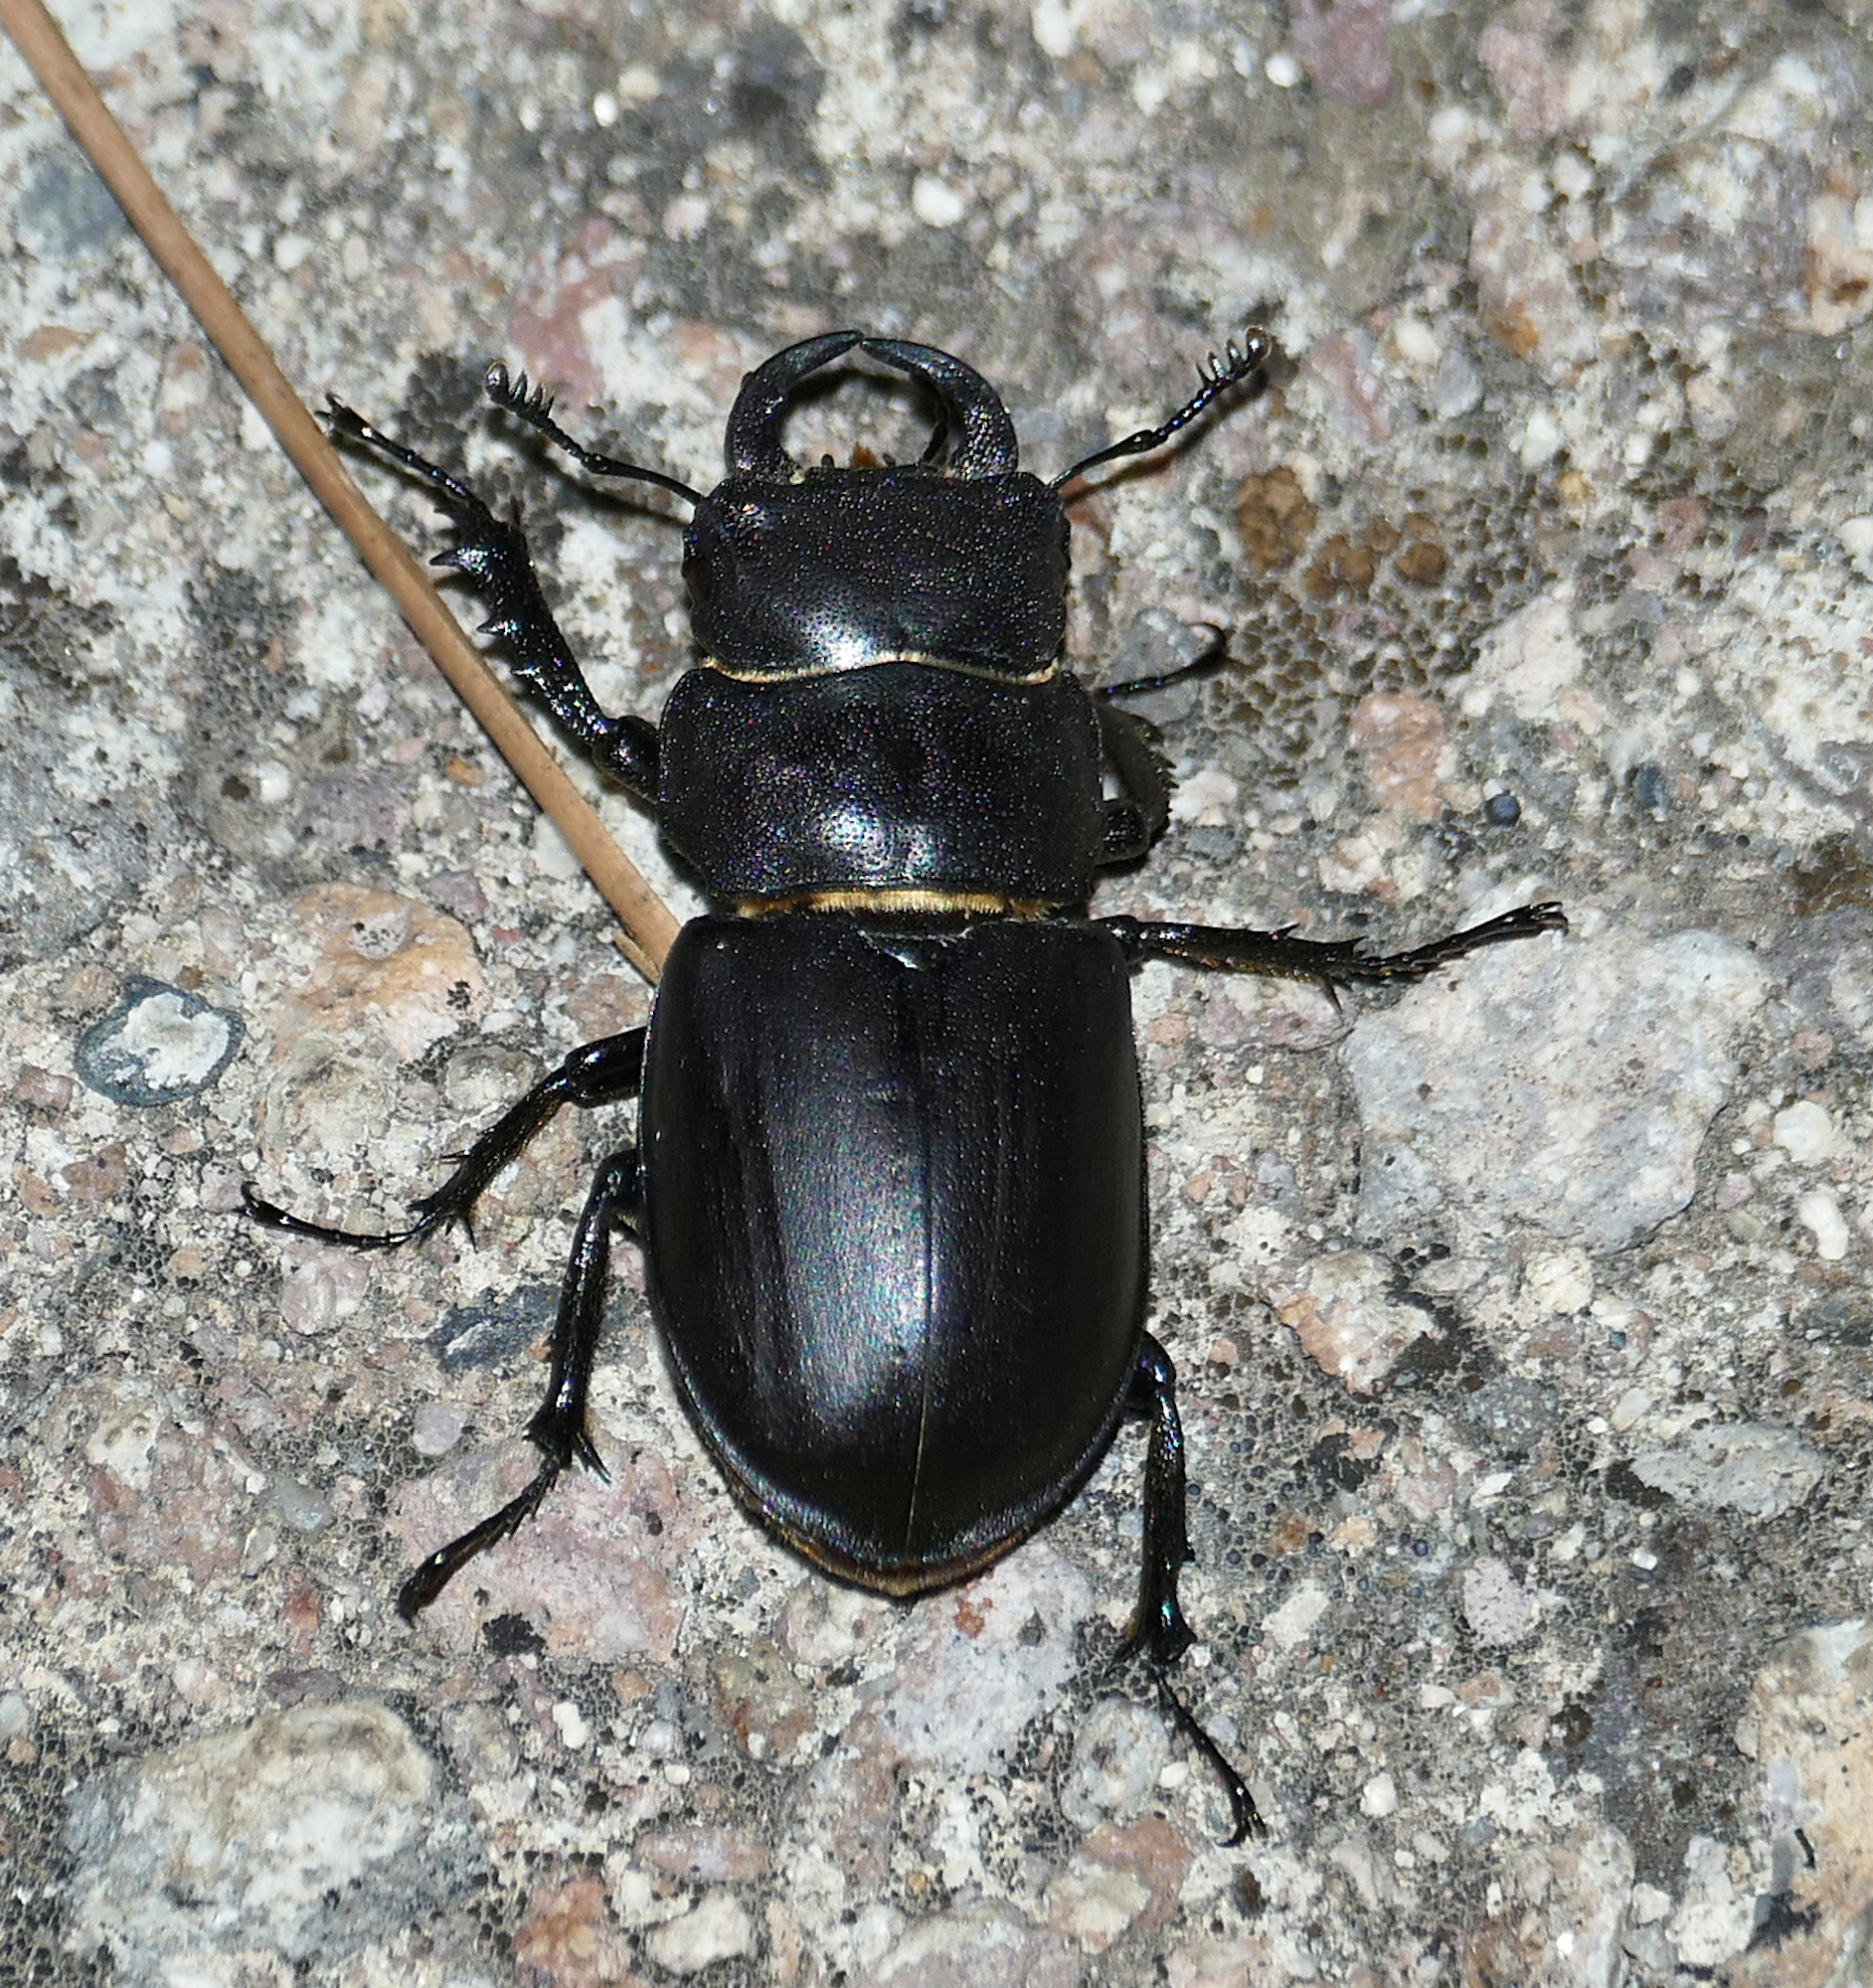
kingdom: Animalia
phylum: Arthropoda
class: Insecta
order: Coleoptera
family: Lucanidae
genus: Lucanus
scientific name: Lucanus mazama
